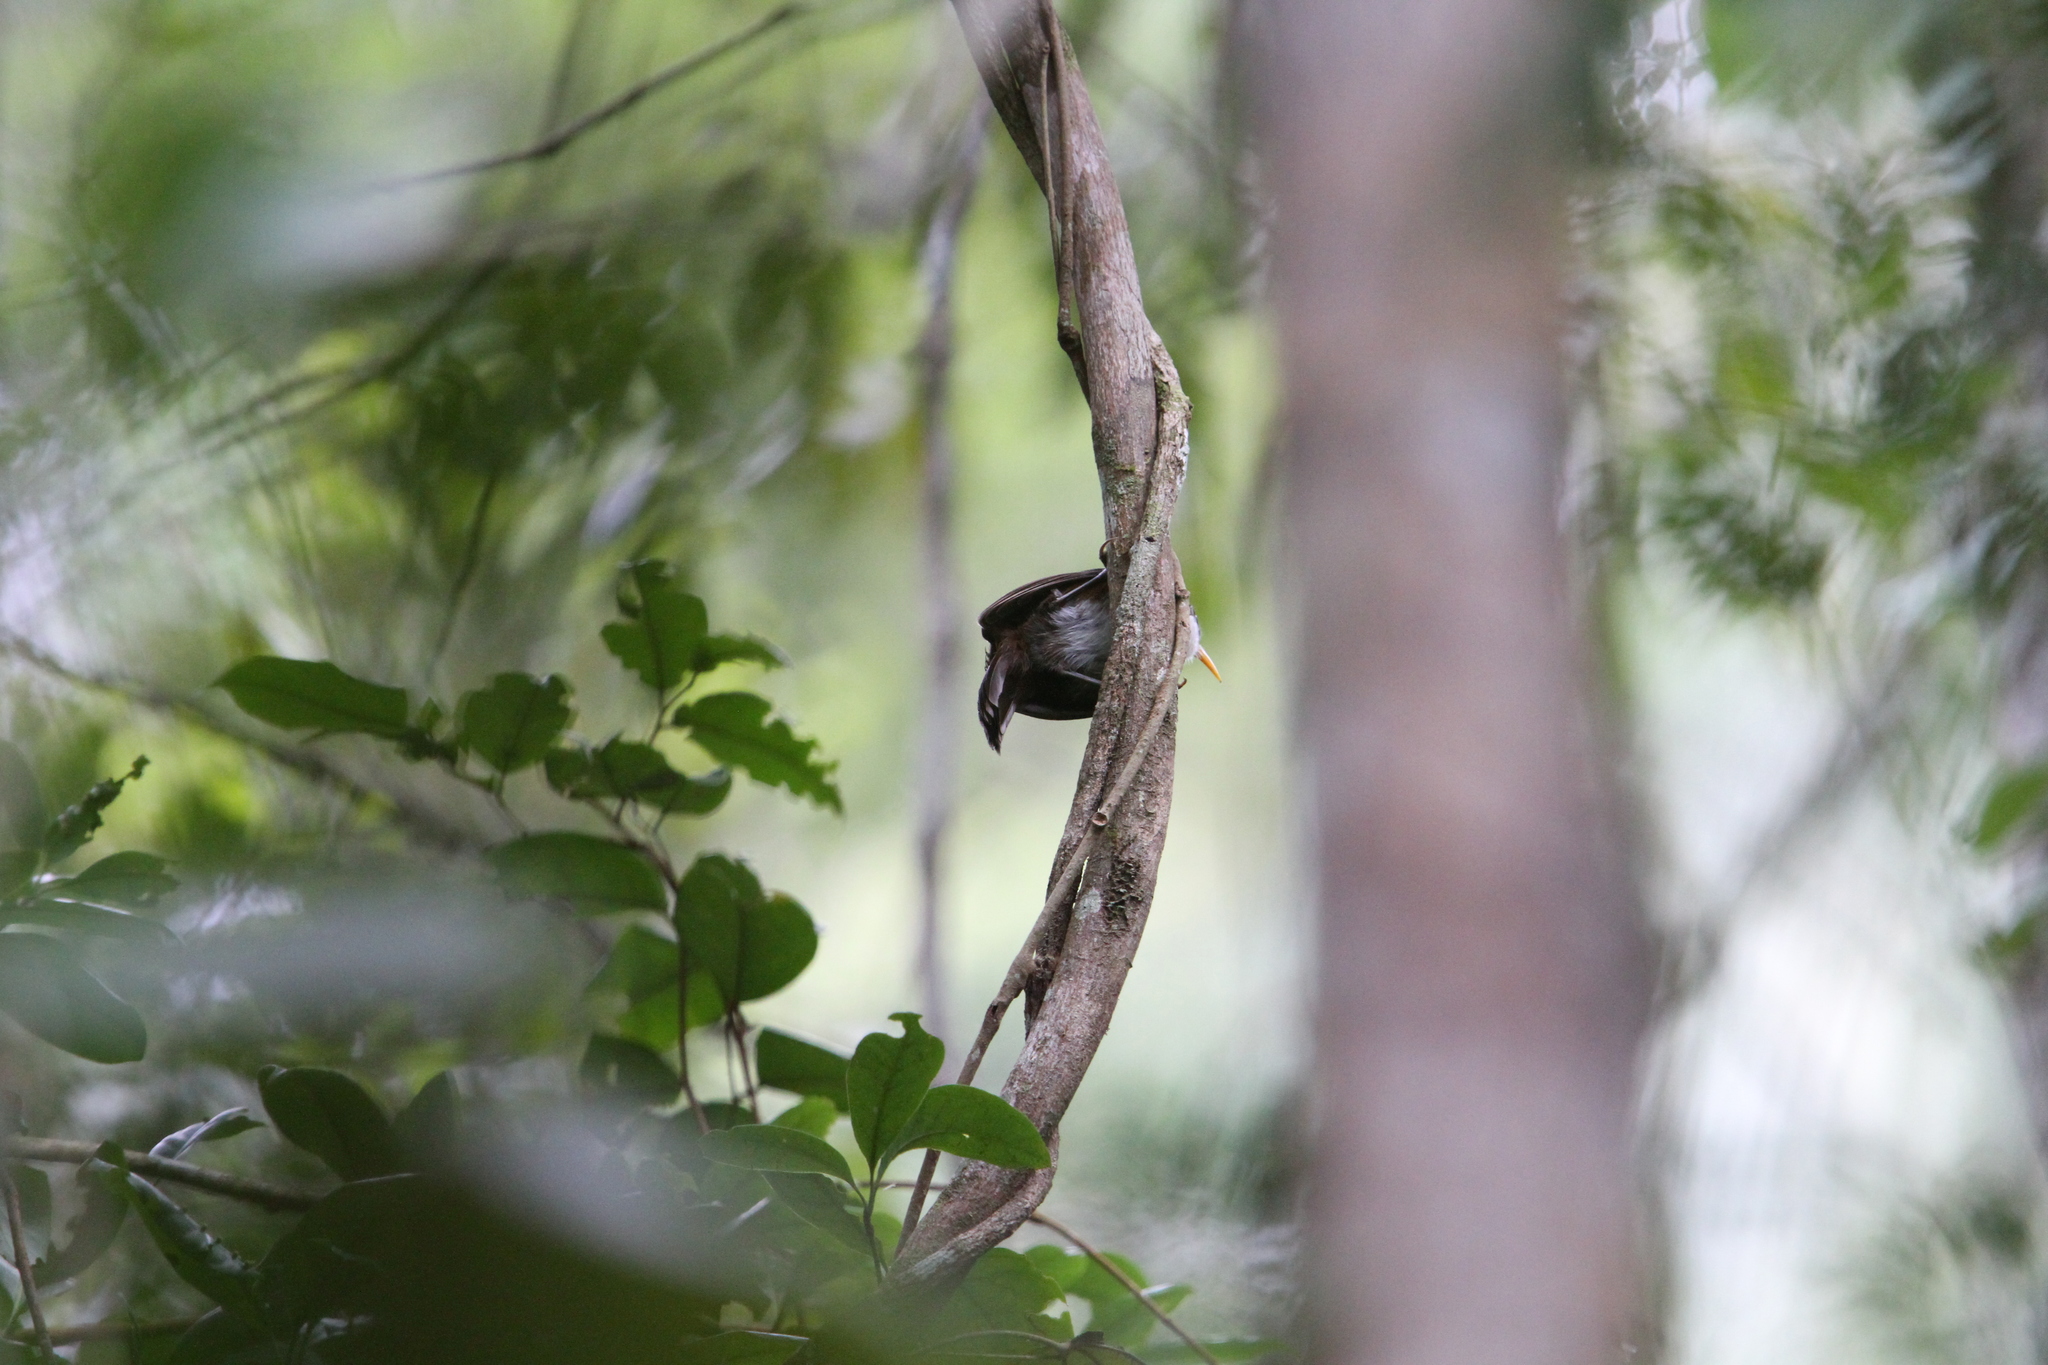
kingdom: Animalia
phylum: Chordata
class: Aves
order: Passeriformes
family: Timaliidae
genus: Pomatorhinus
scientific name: Pomatorhinus melanurus
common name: Sri lanka scimitar-babbler
